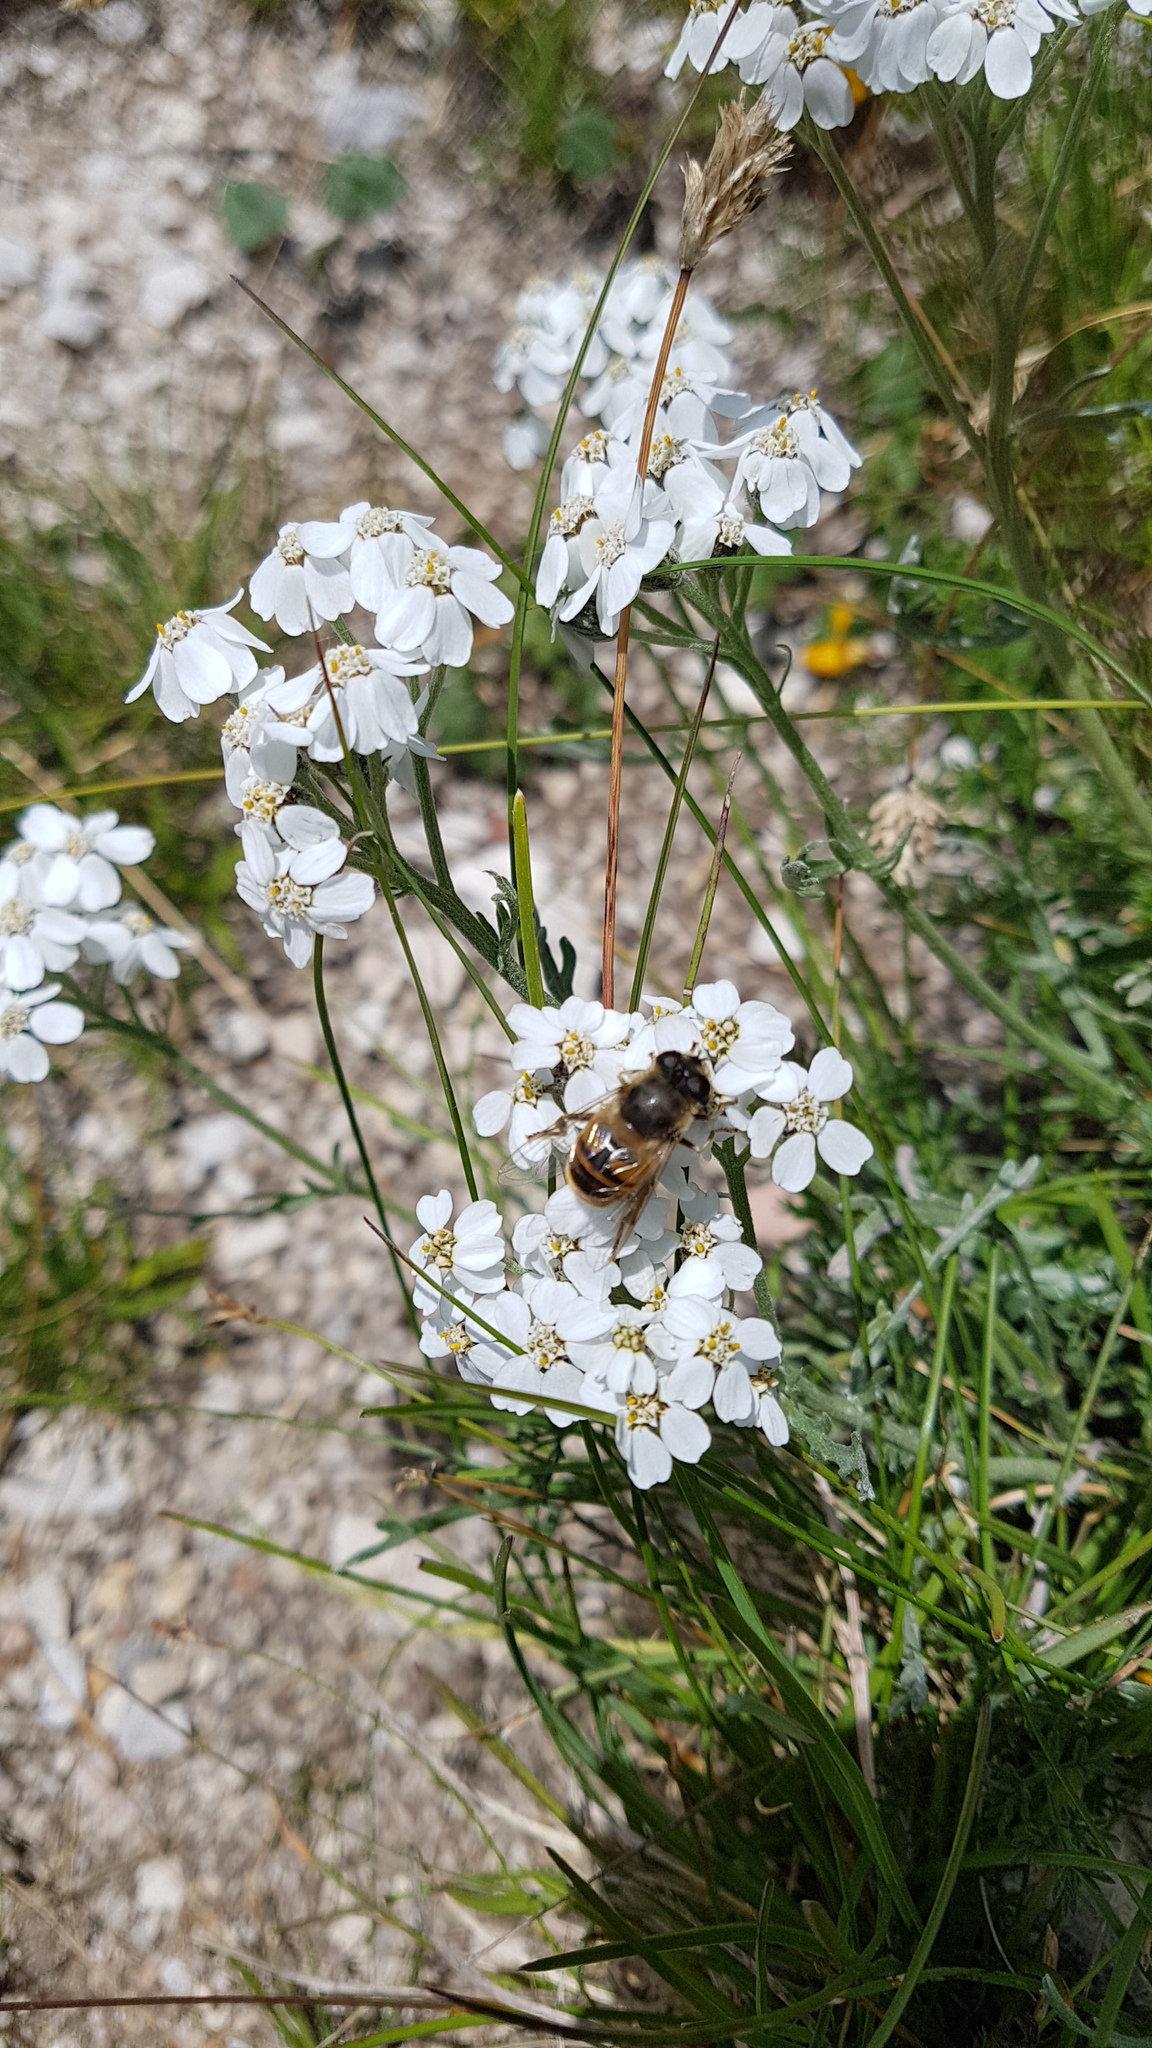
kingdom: Plantae
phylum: Tracheophyta
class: Magnoliopsida
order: Asterales
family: Asteraceae
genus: Achillea
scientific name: Achillea millefolium
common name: Yarrow
